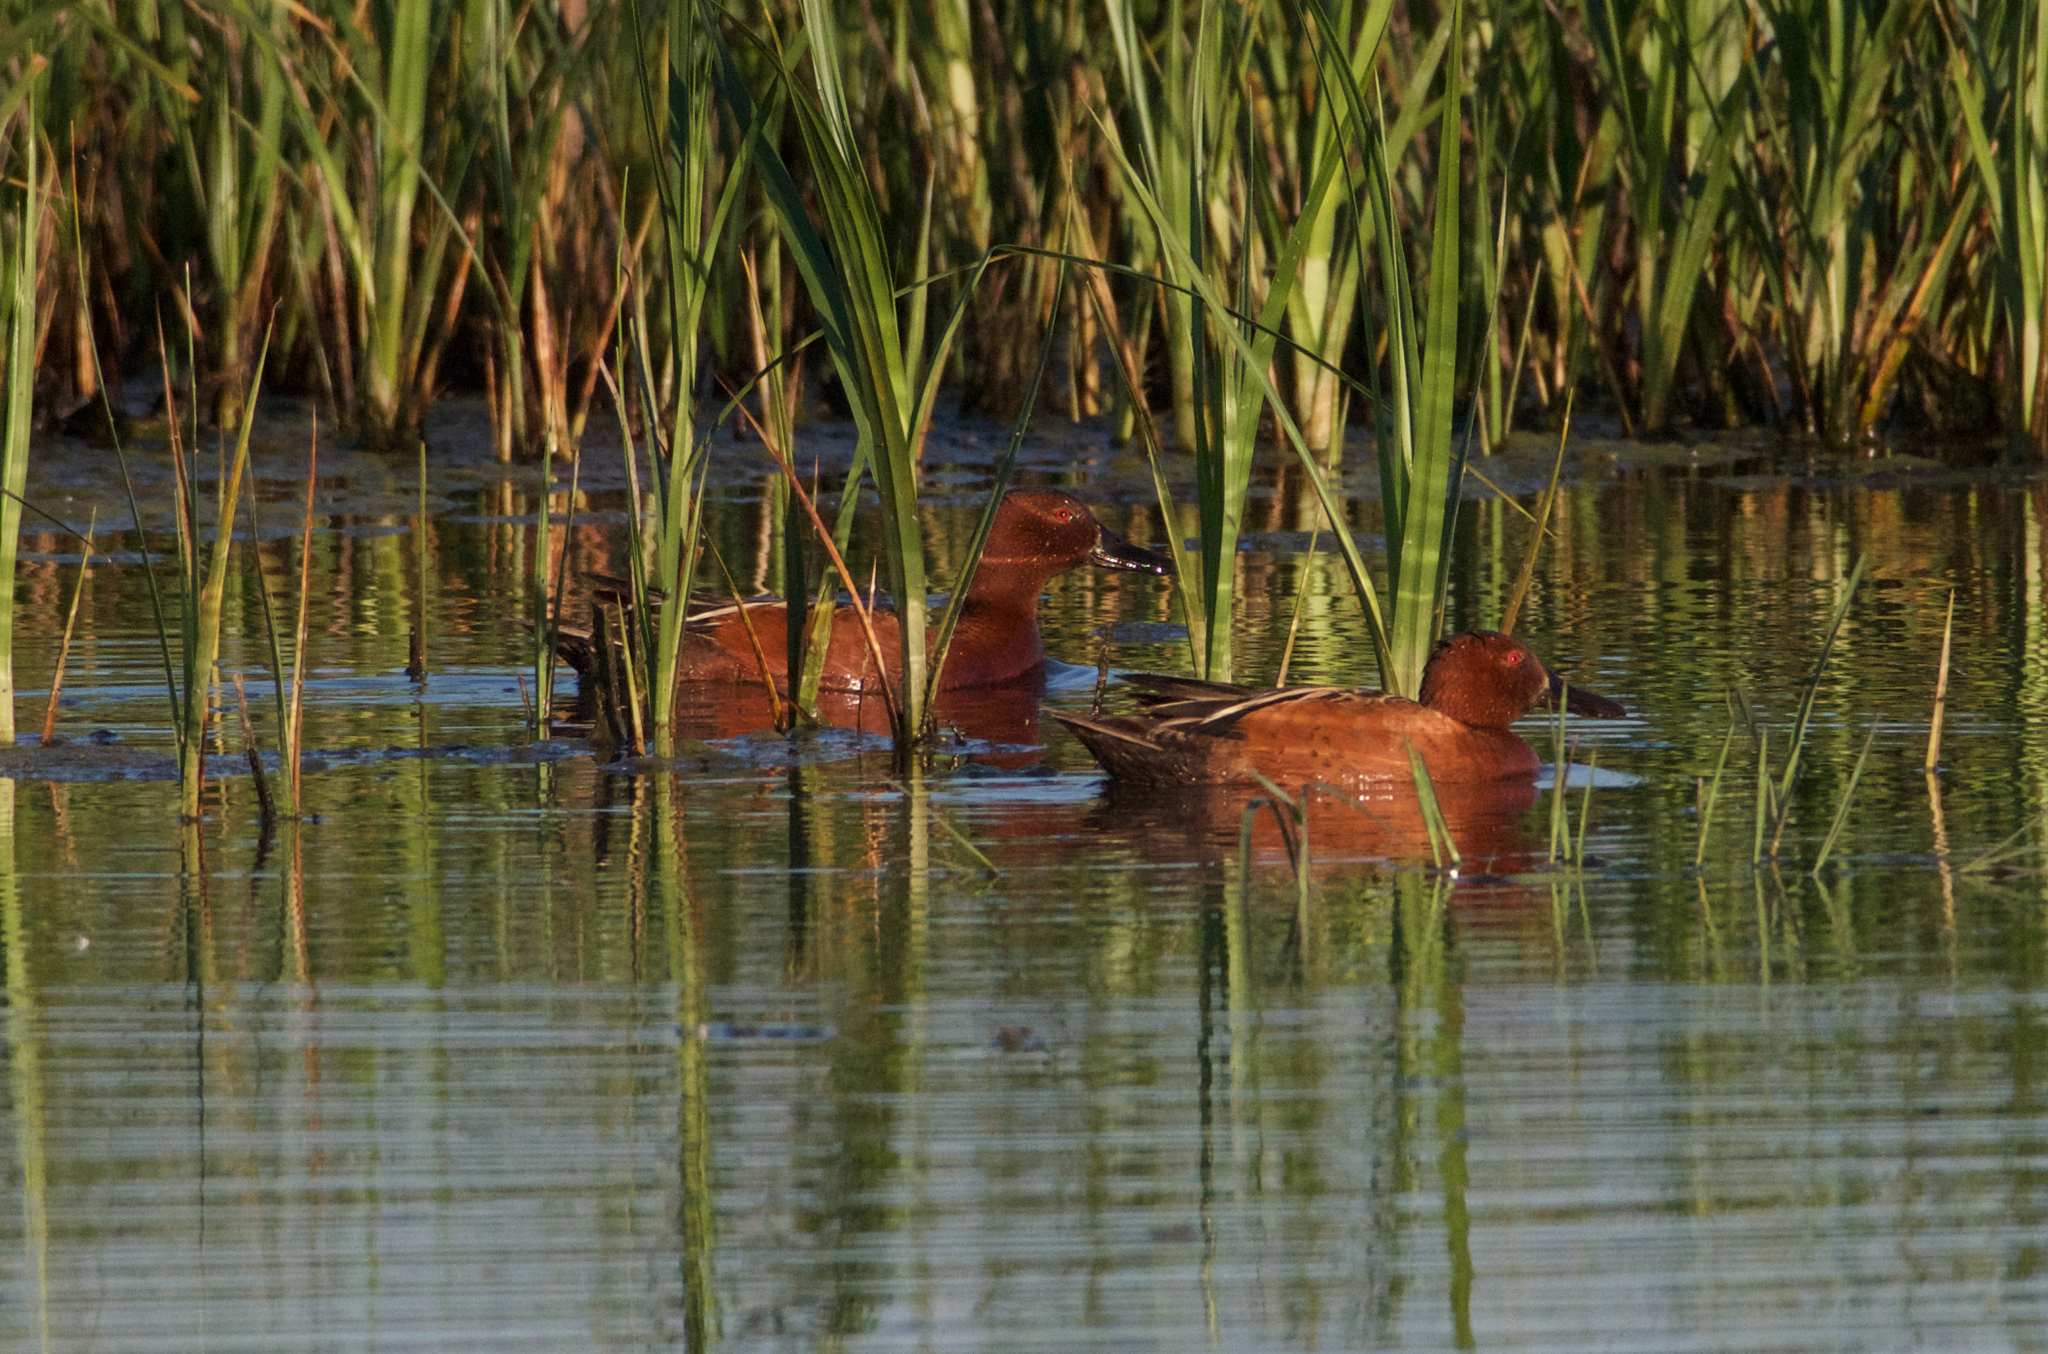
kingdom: Animalia
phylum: Chordata
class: Aves
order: Anseriformes
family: Anatidae
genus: Spatula
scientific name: Spatula cyanoptera
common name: Cinnamon teal
